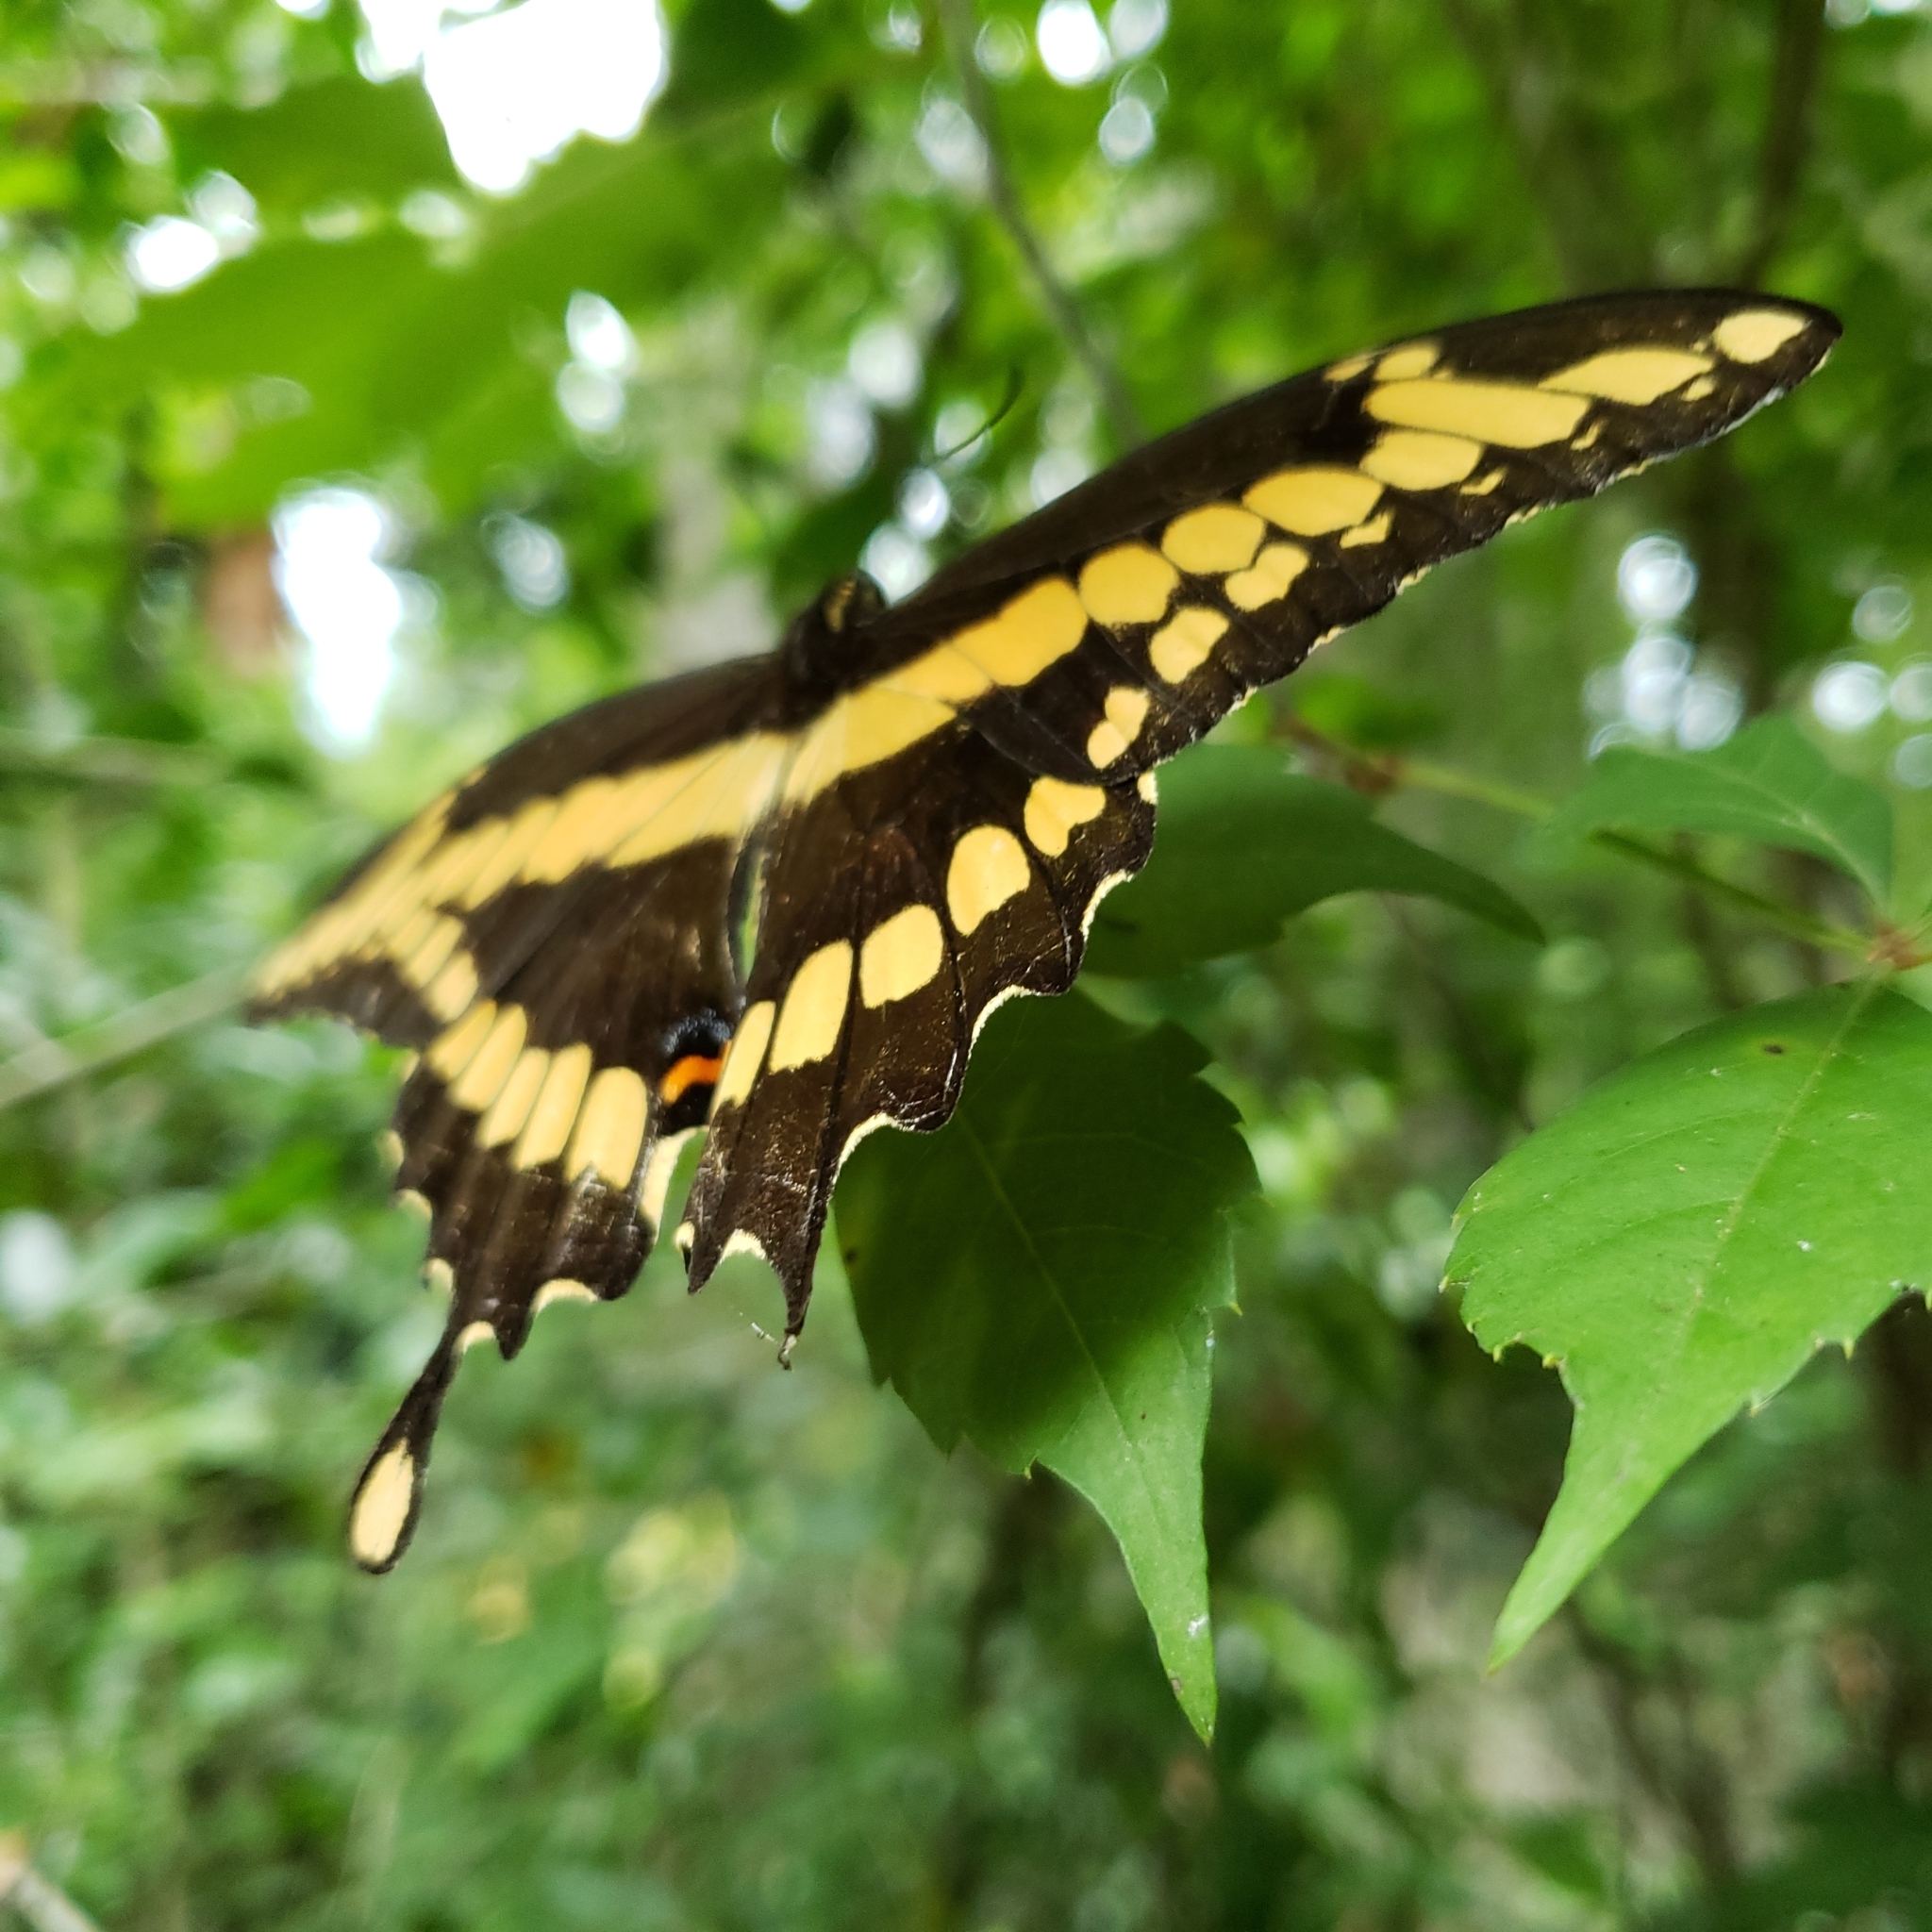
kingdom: Animalia
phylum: Arthropoda
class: Insecta
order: Lepidoptera
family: Papilionidae
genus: Papilio
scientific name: Papilio cresphontes
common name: Giant swallowtail
